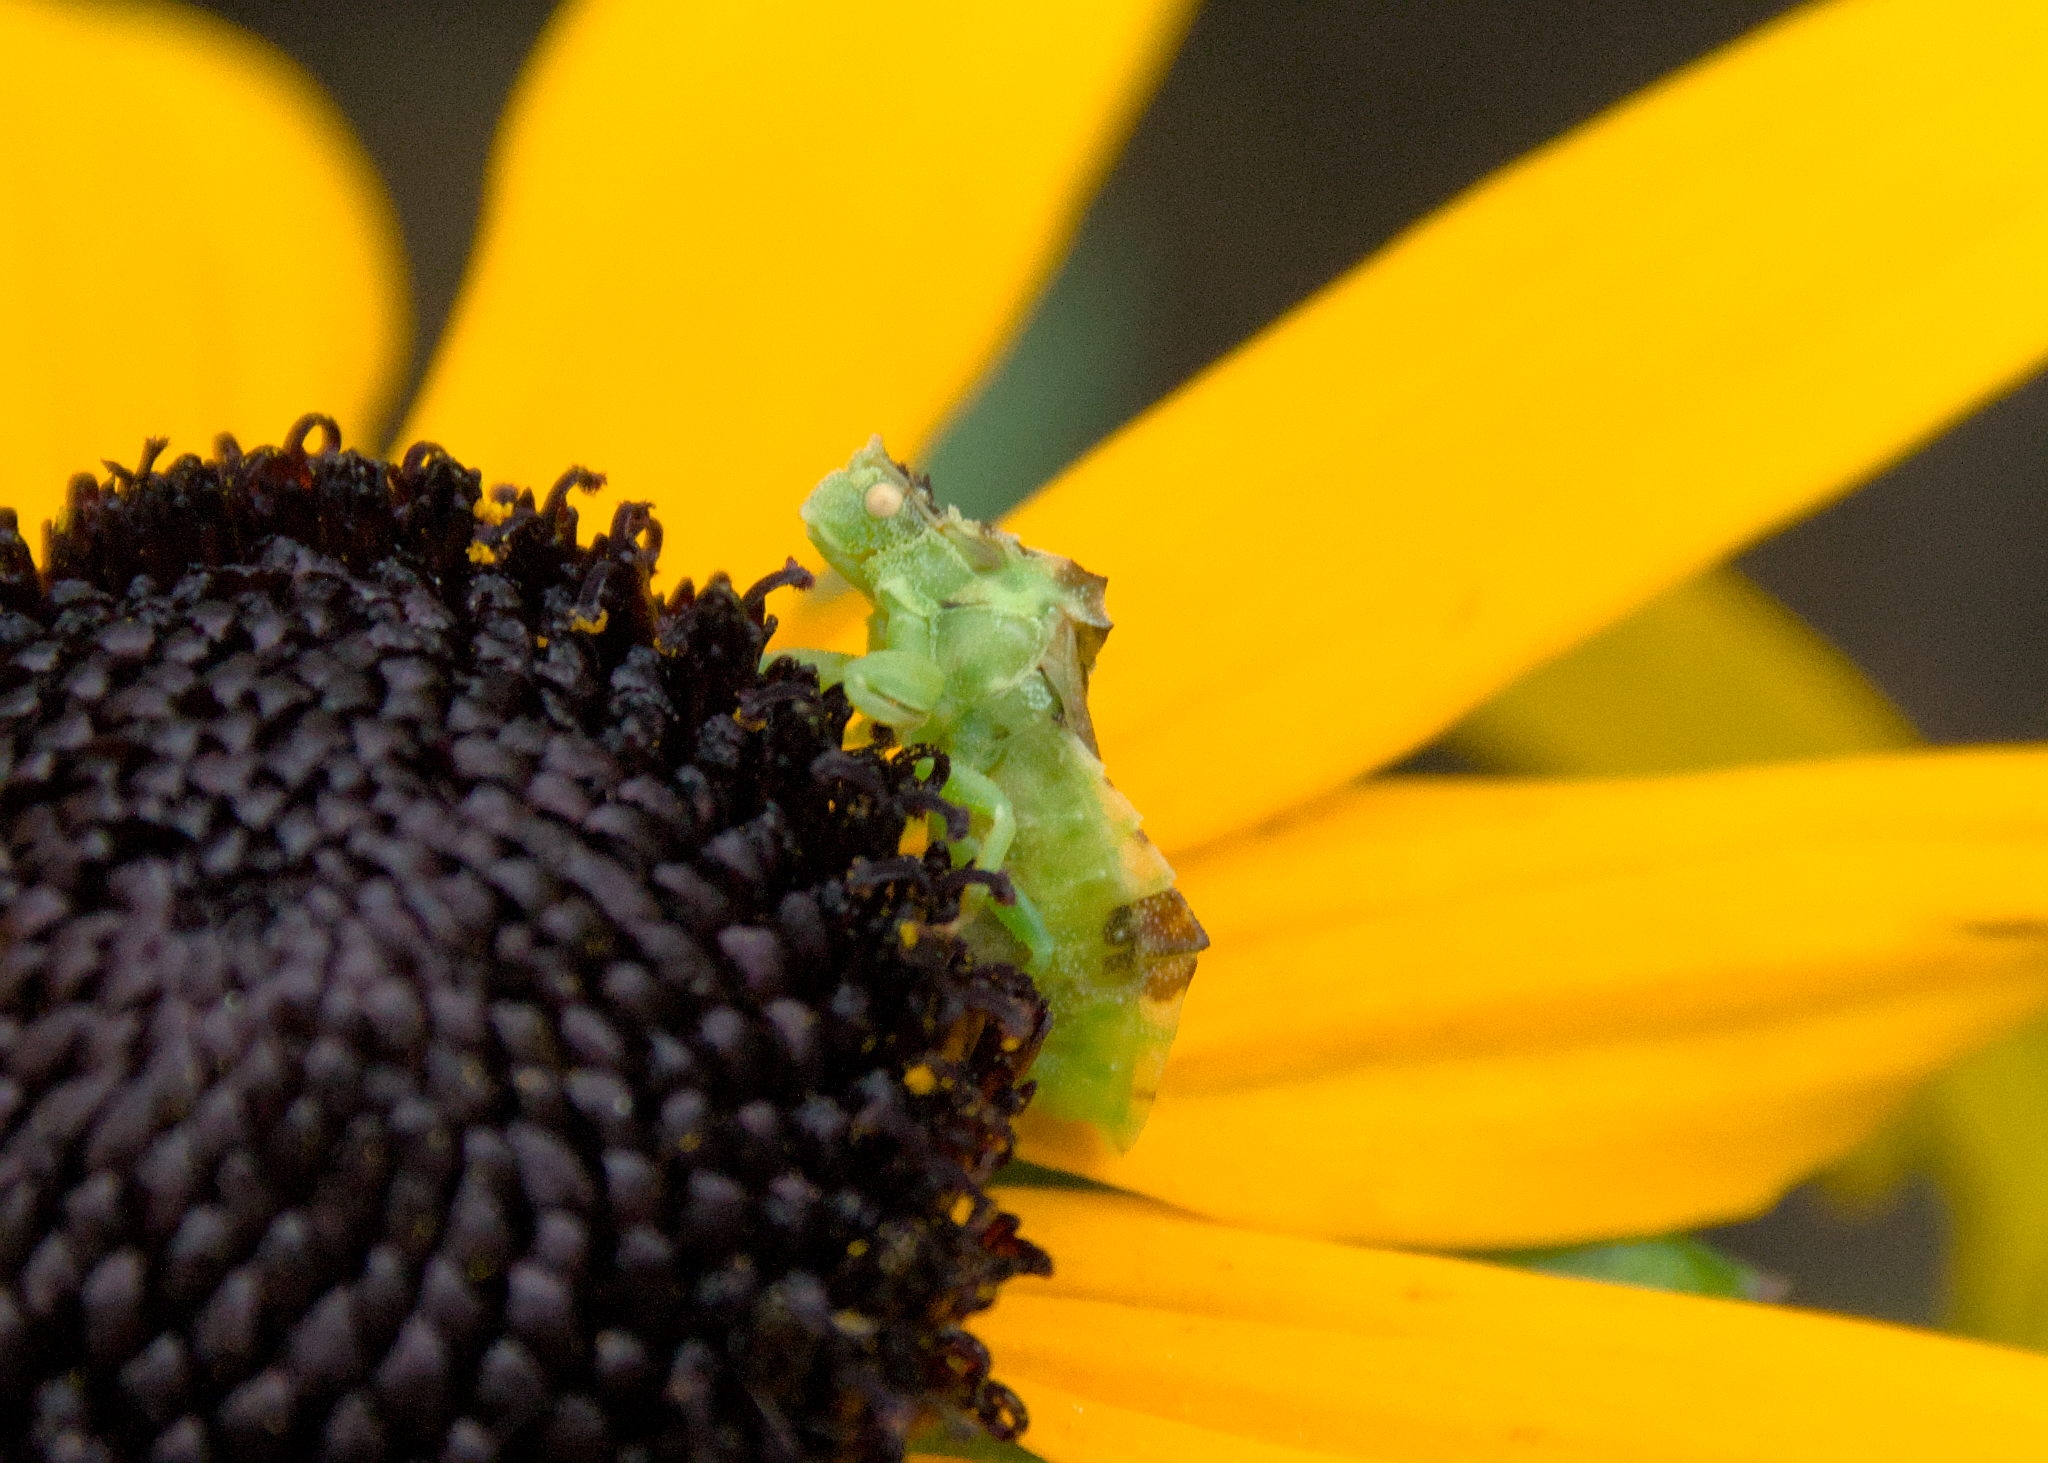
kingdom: Animalia
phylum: Arthropoda
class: Insecta
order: Hemiptera
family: Reduviidae
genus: Phymata
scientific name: Phymata americana
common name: Jagged ambush bug
